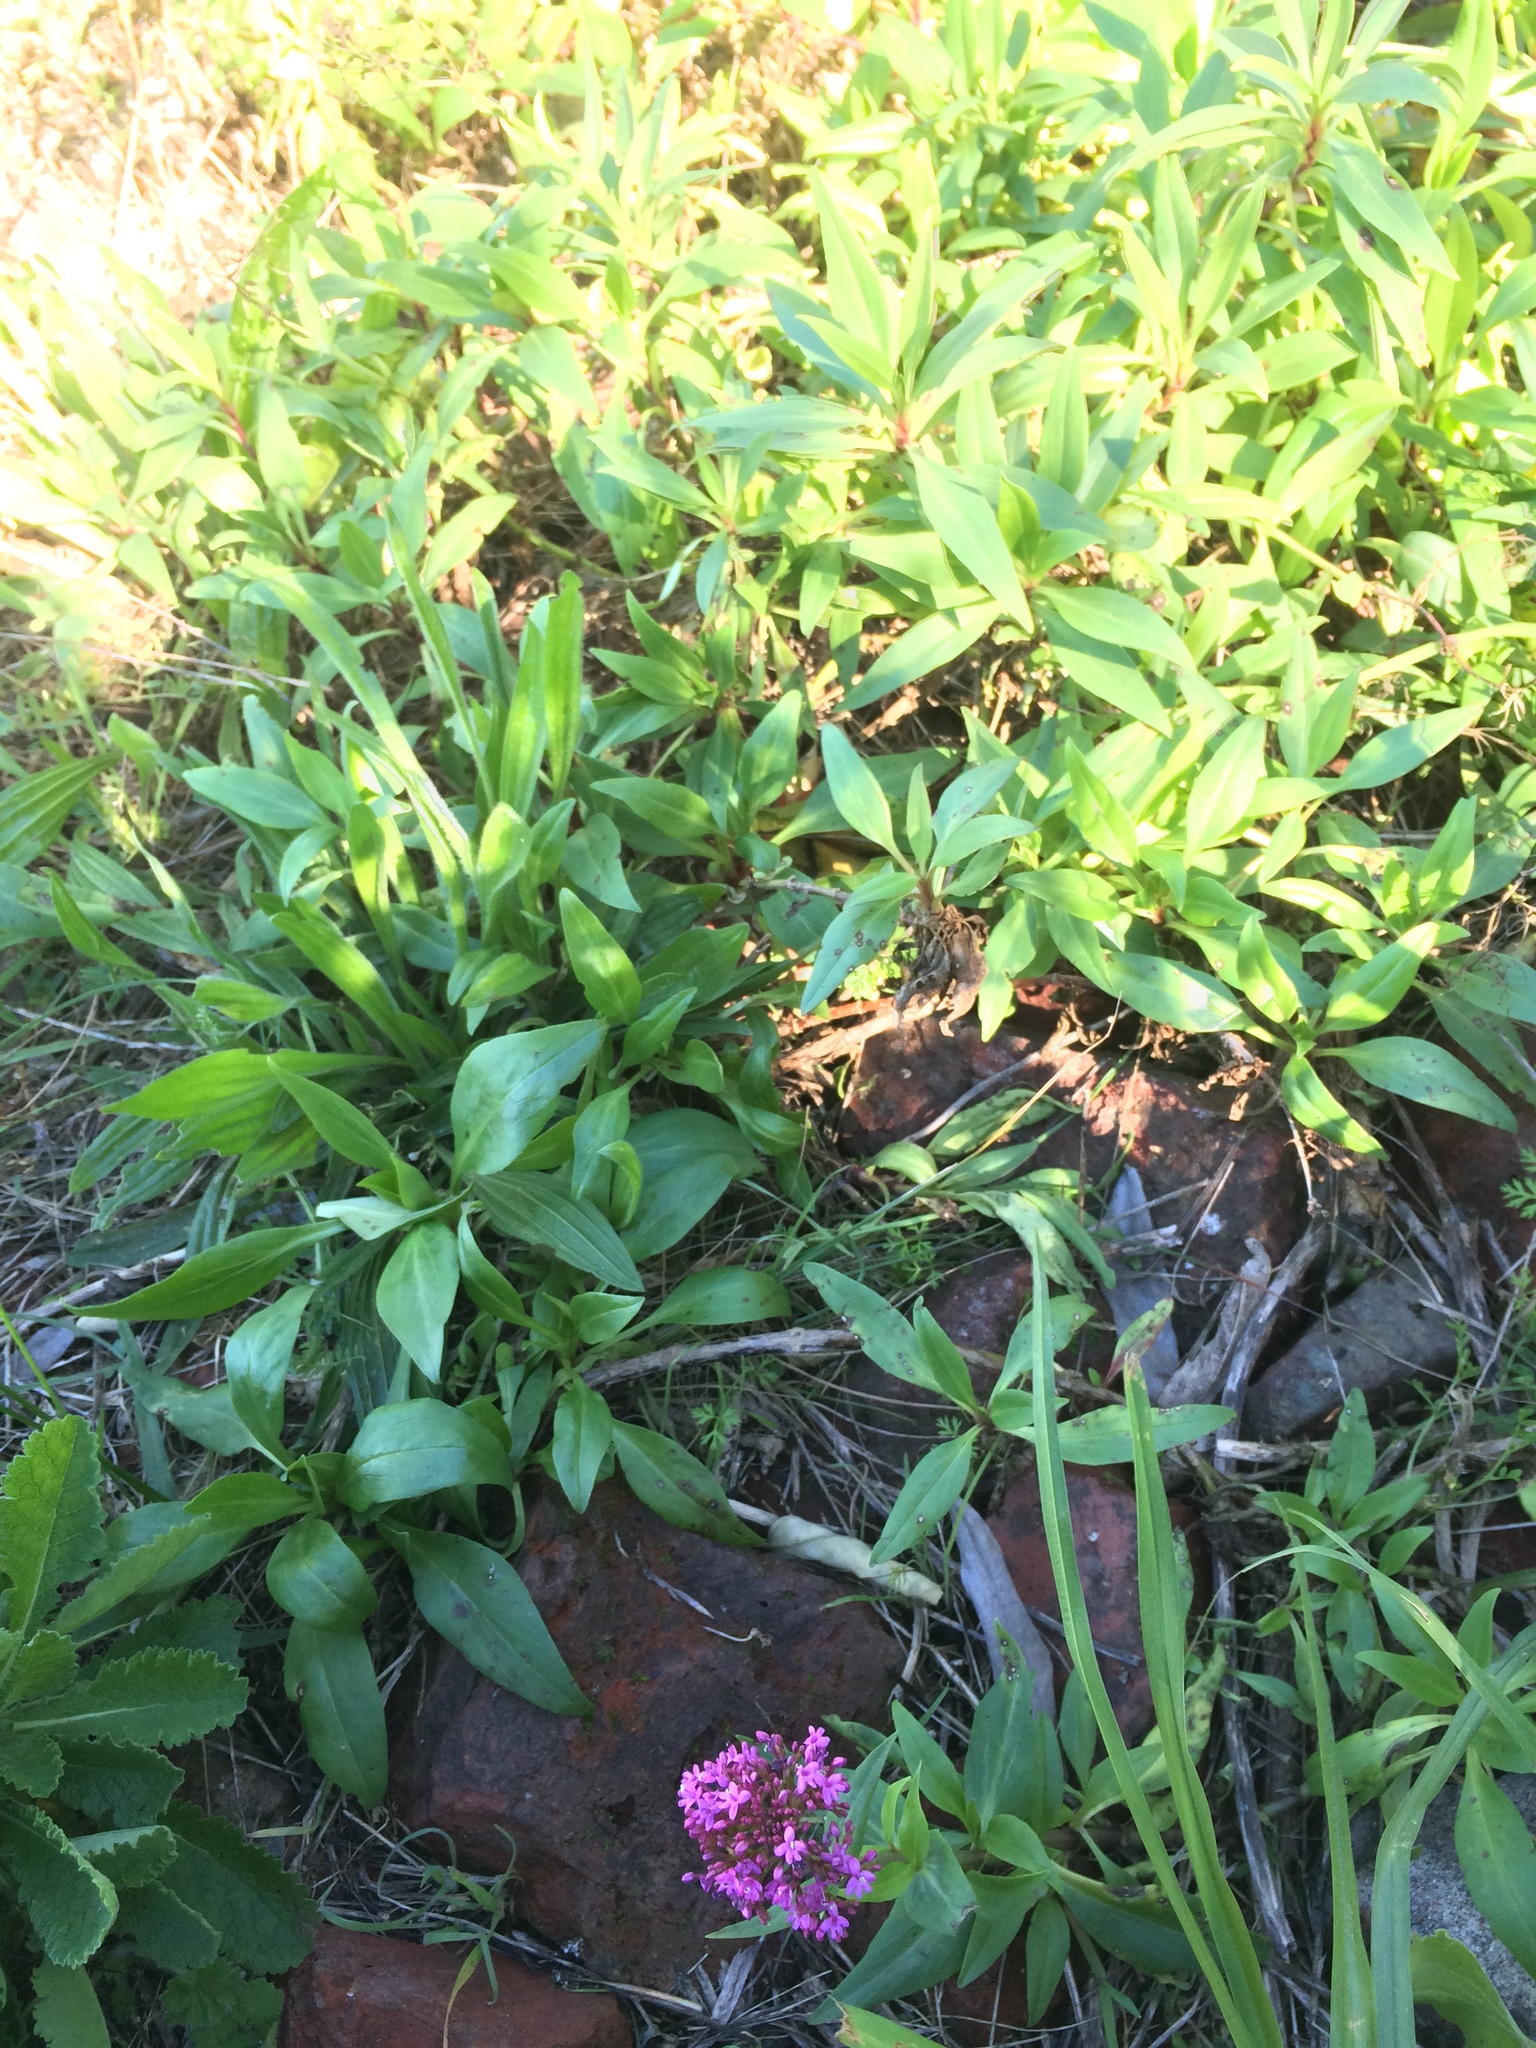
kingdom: Plantae
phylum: Tracheophyta
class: Magnoliopsida
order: Dipsacales
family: Caprifoliaceae
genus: Centranthus
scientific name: Centranthus ruber
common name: Red valerian
